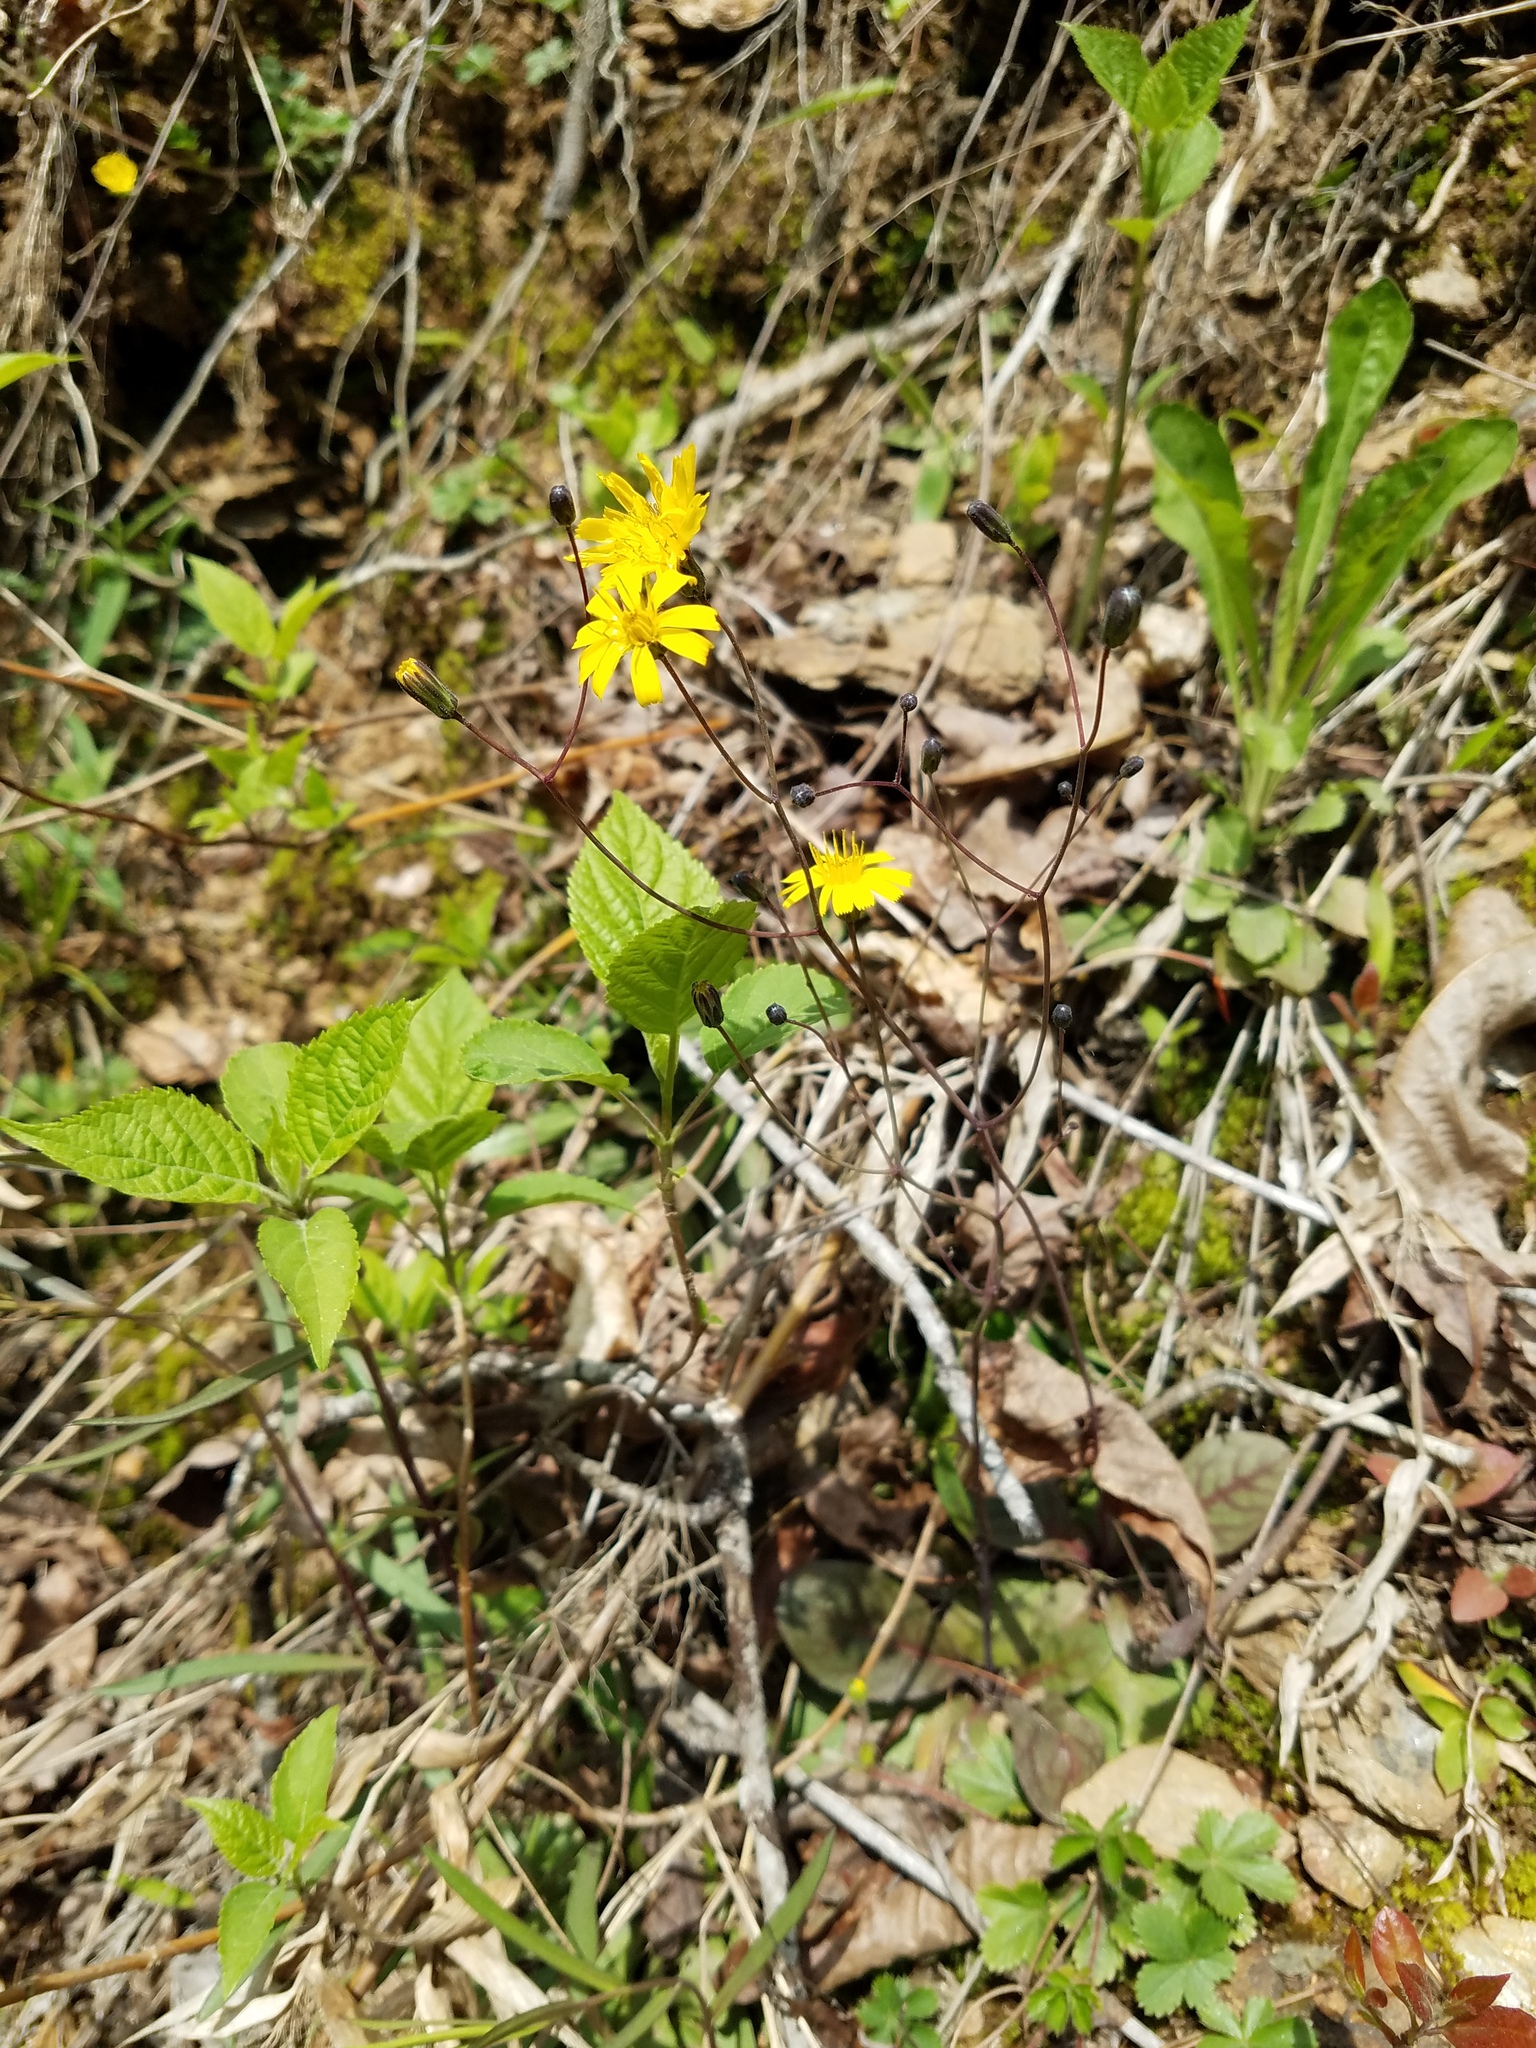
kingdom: Plantae
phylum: Tracheophyta
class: Magnoliopsida
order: Asterales
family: Asteraceae
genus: Hieracium
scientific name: Hieracium venosum
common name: Rattlesnake hawkweed
